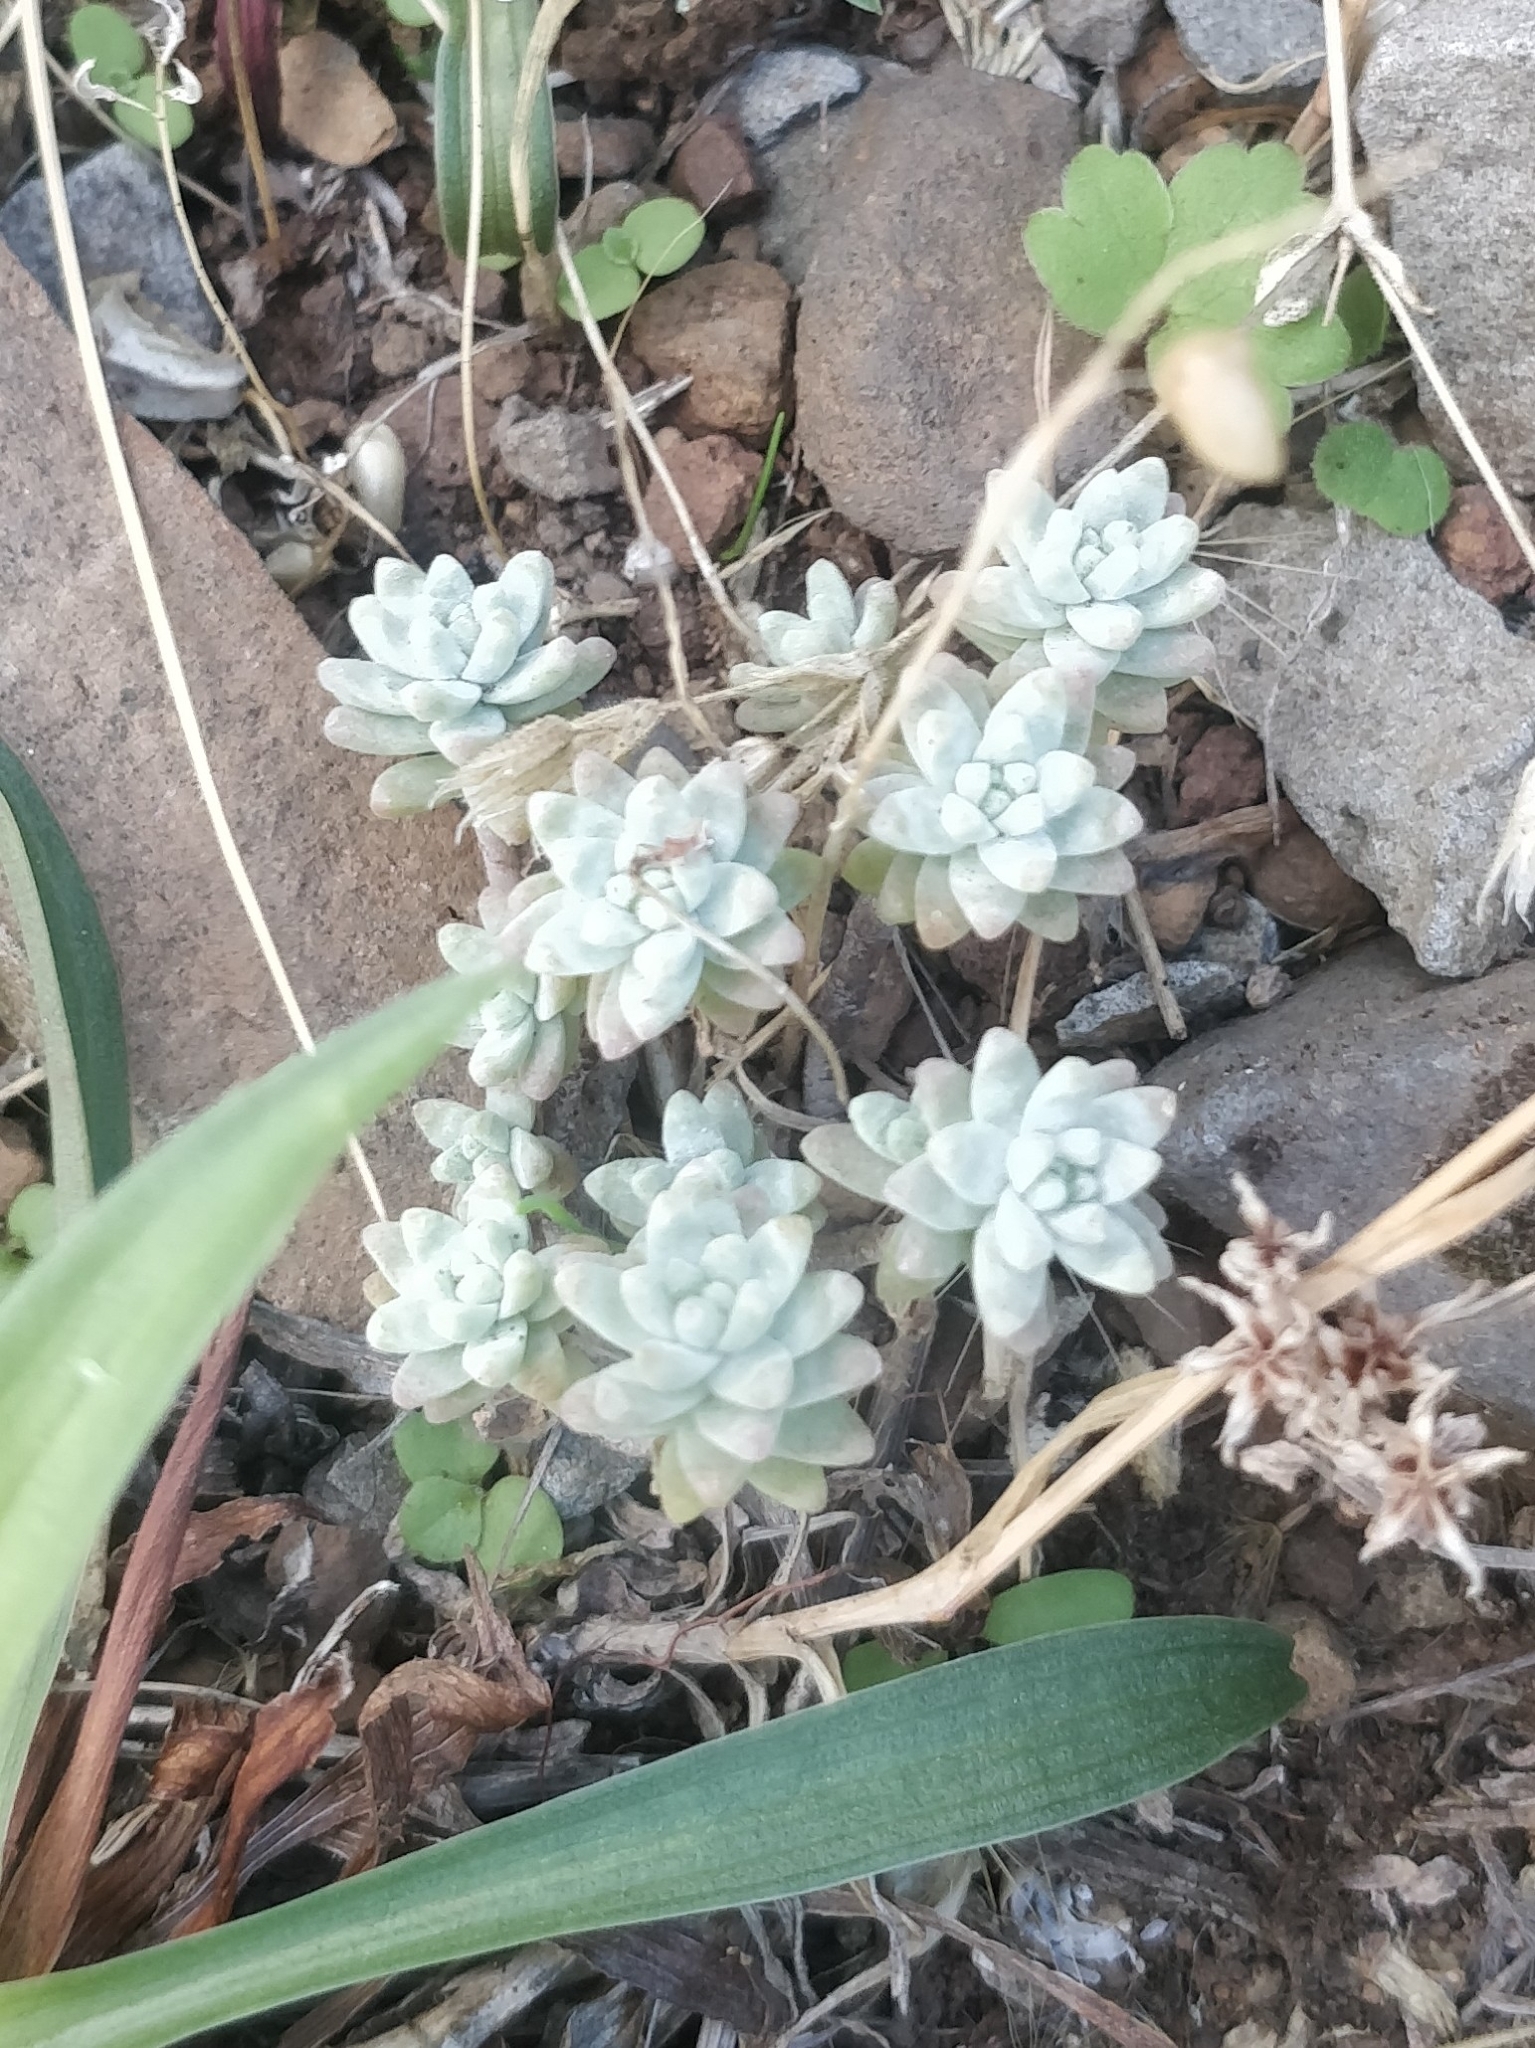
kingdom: Plantae
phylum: Tracheophyta
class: Magnoliopsida
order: Saxifragales
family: Crassulaceae
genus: Sedum
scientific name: Sedum farinosum
